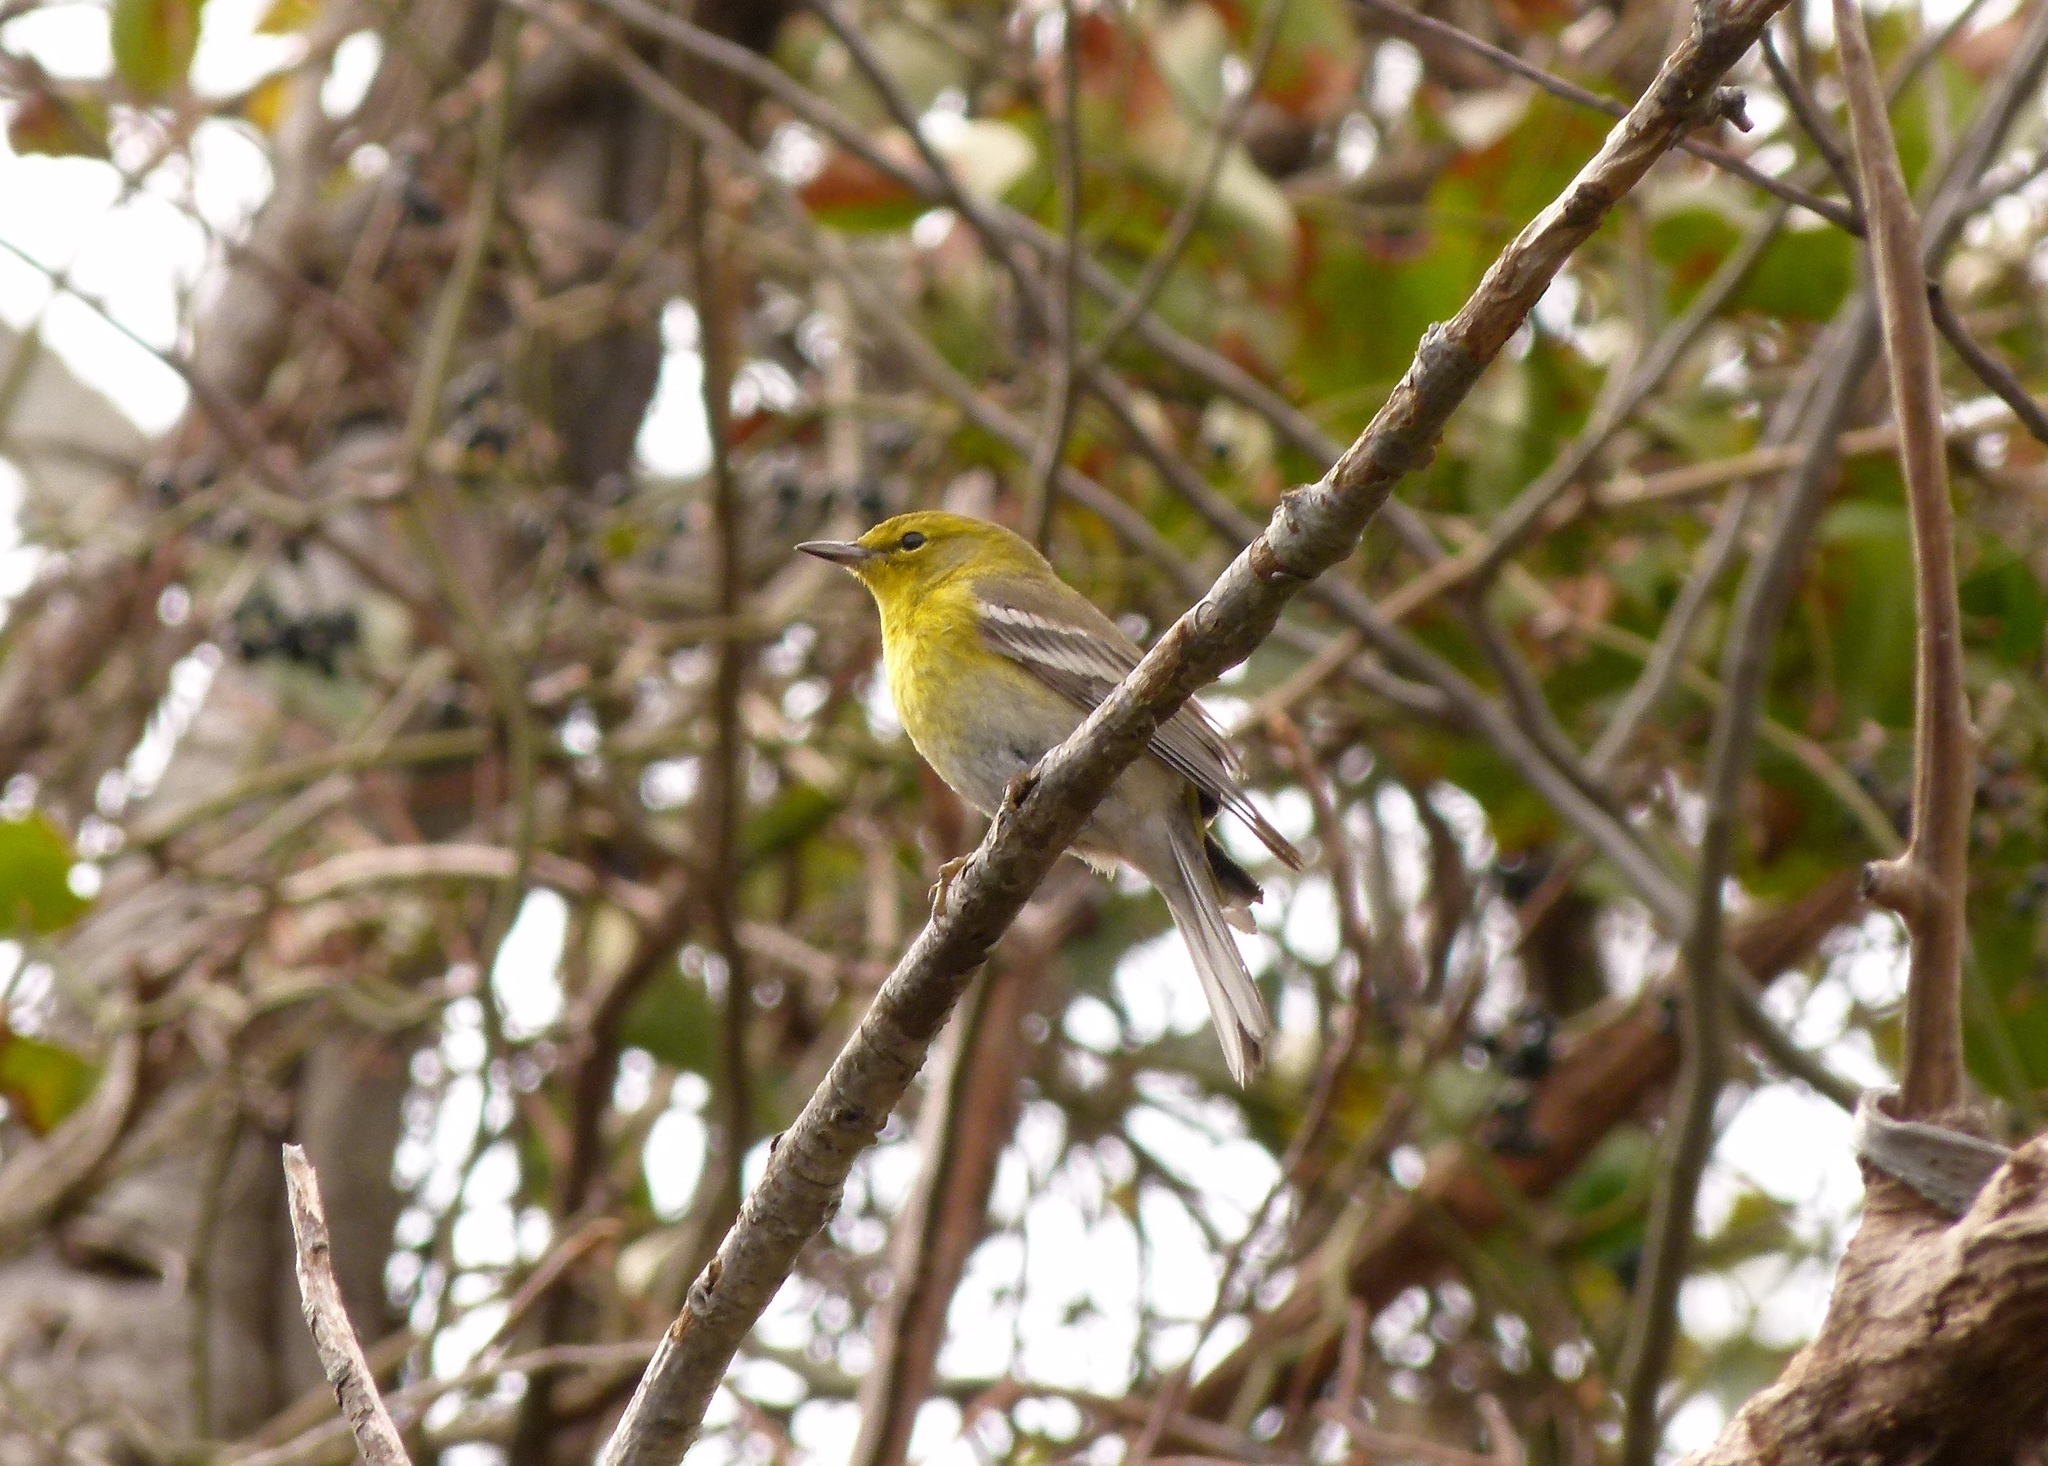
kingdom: Animalia
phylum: Chordata
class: Aves
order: Passeriformes
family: Parulidae
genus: Setophaga
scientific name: Setophaga pinus
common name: Pine warbler
